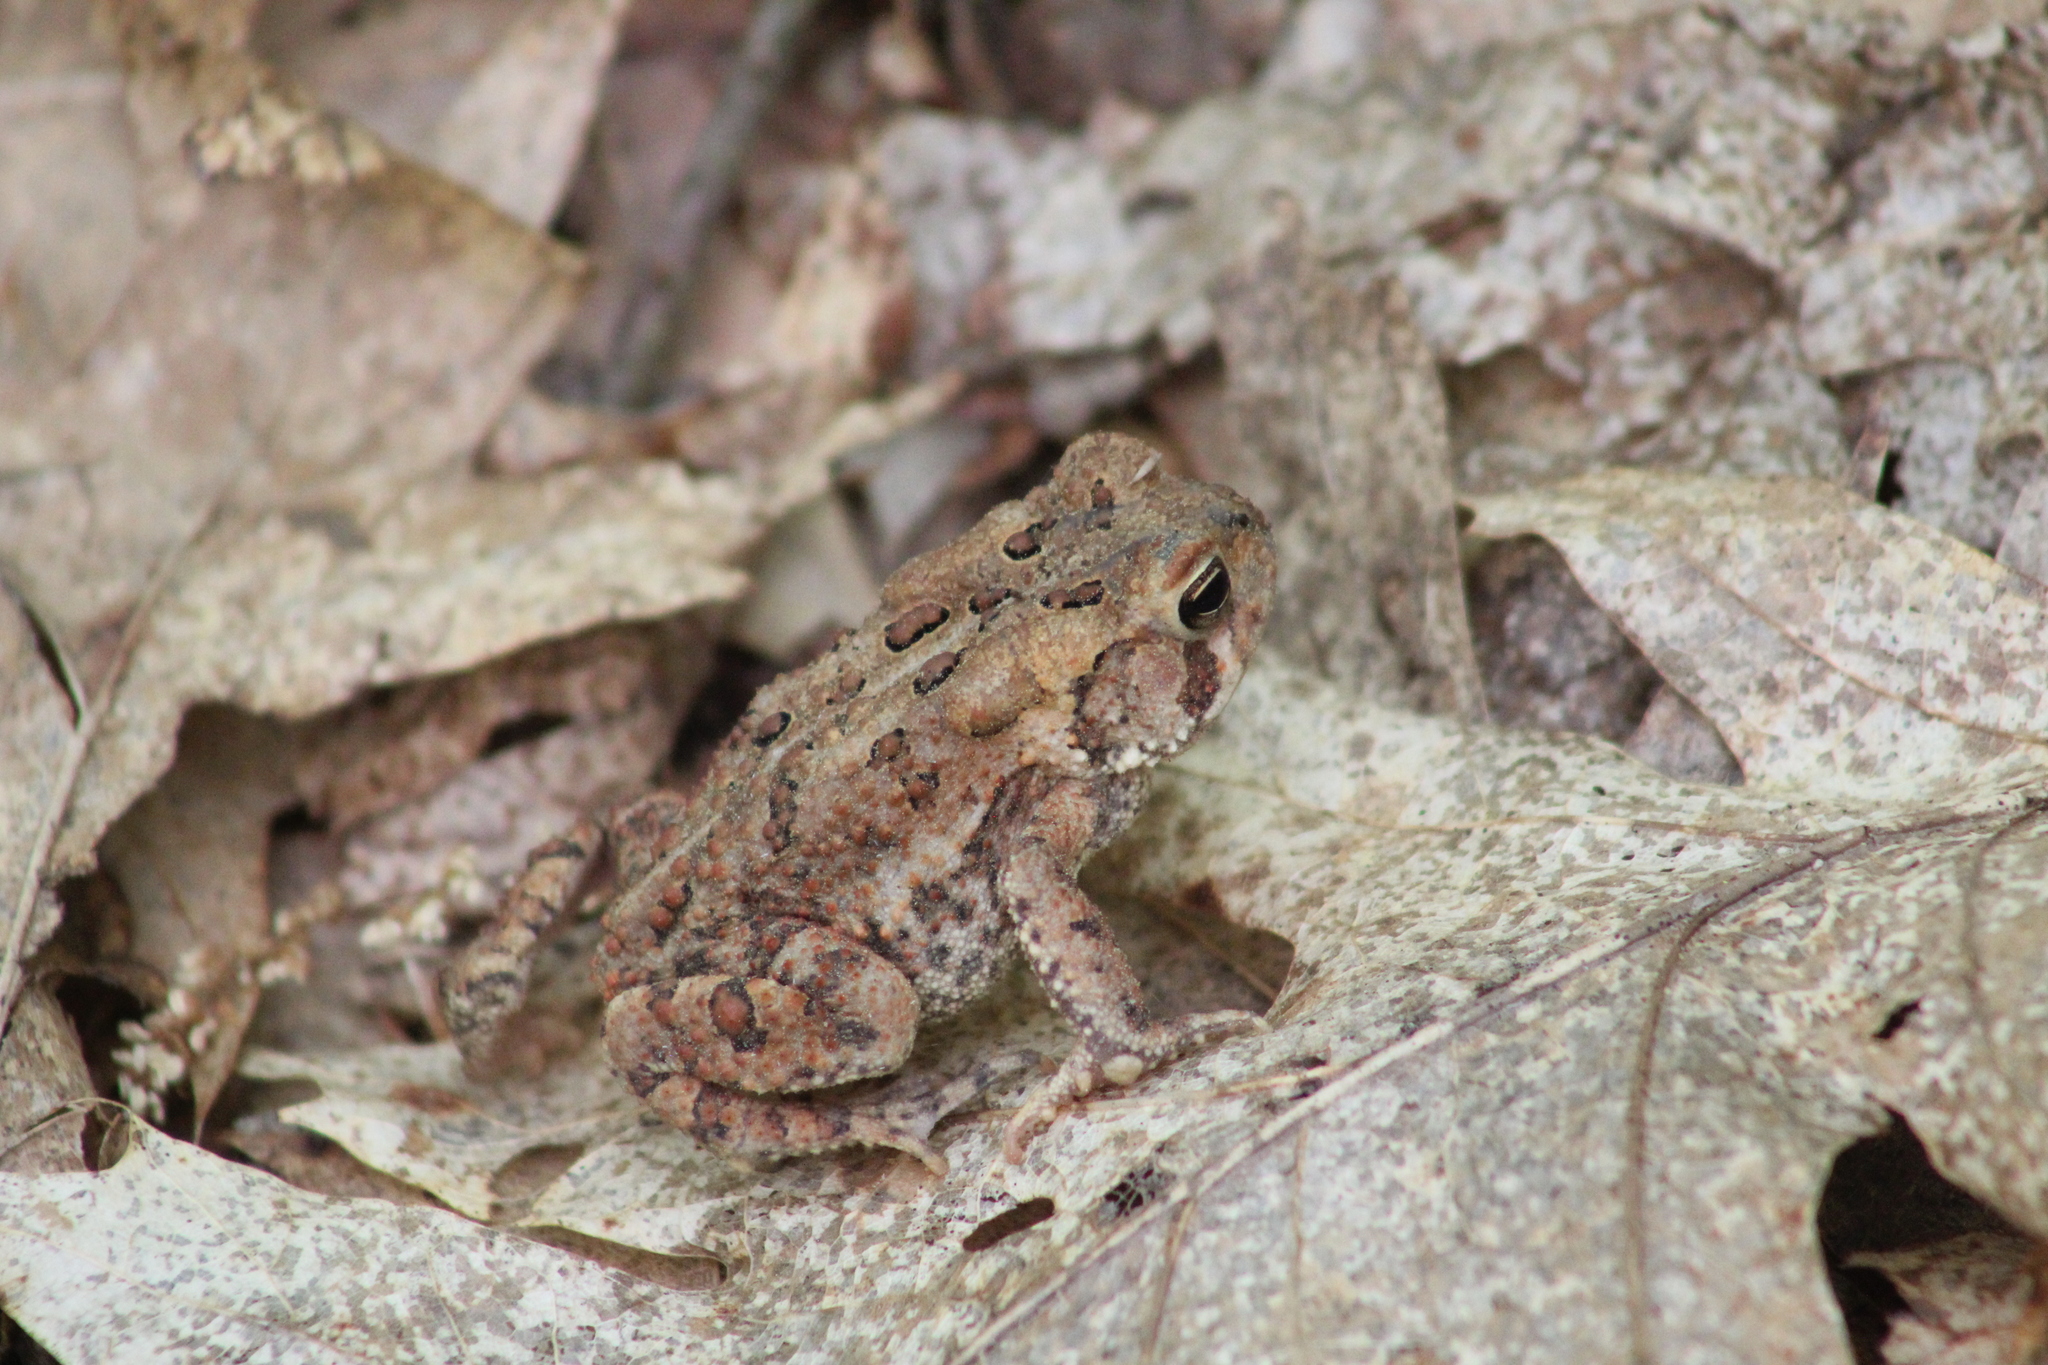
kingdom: Animalia
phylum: Chordata
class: Amphibia
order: Anura
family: Bufonidae
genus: Anaxyrus
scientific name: Anaxyrus americanus
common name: American toad
